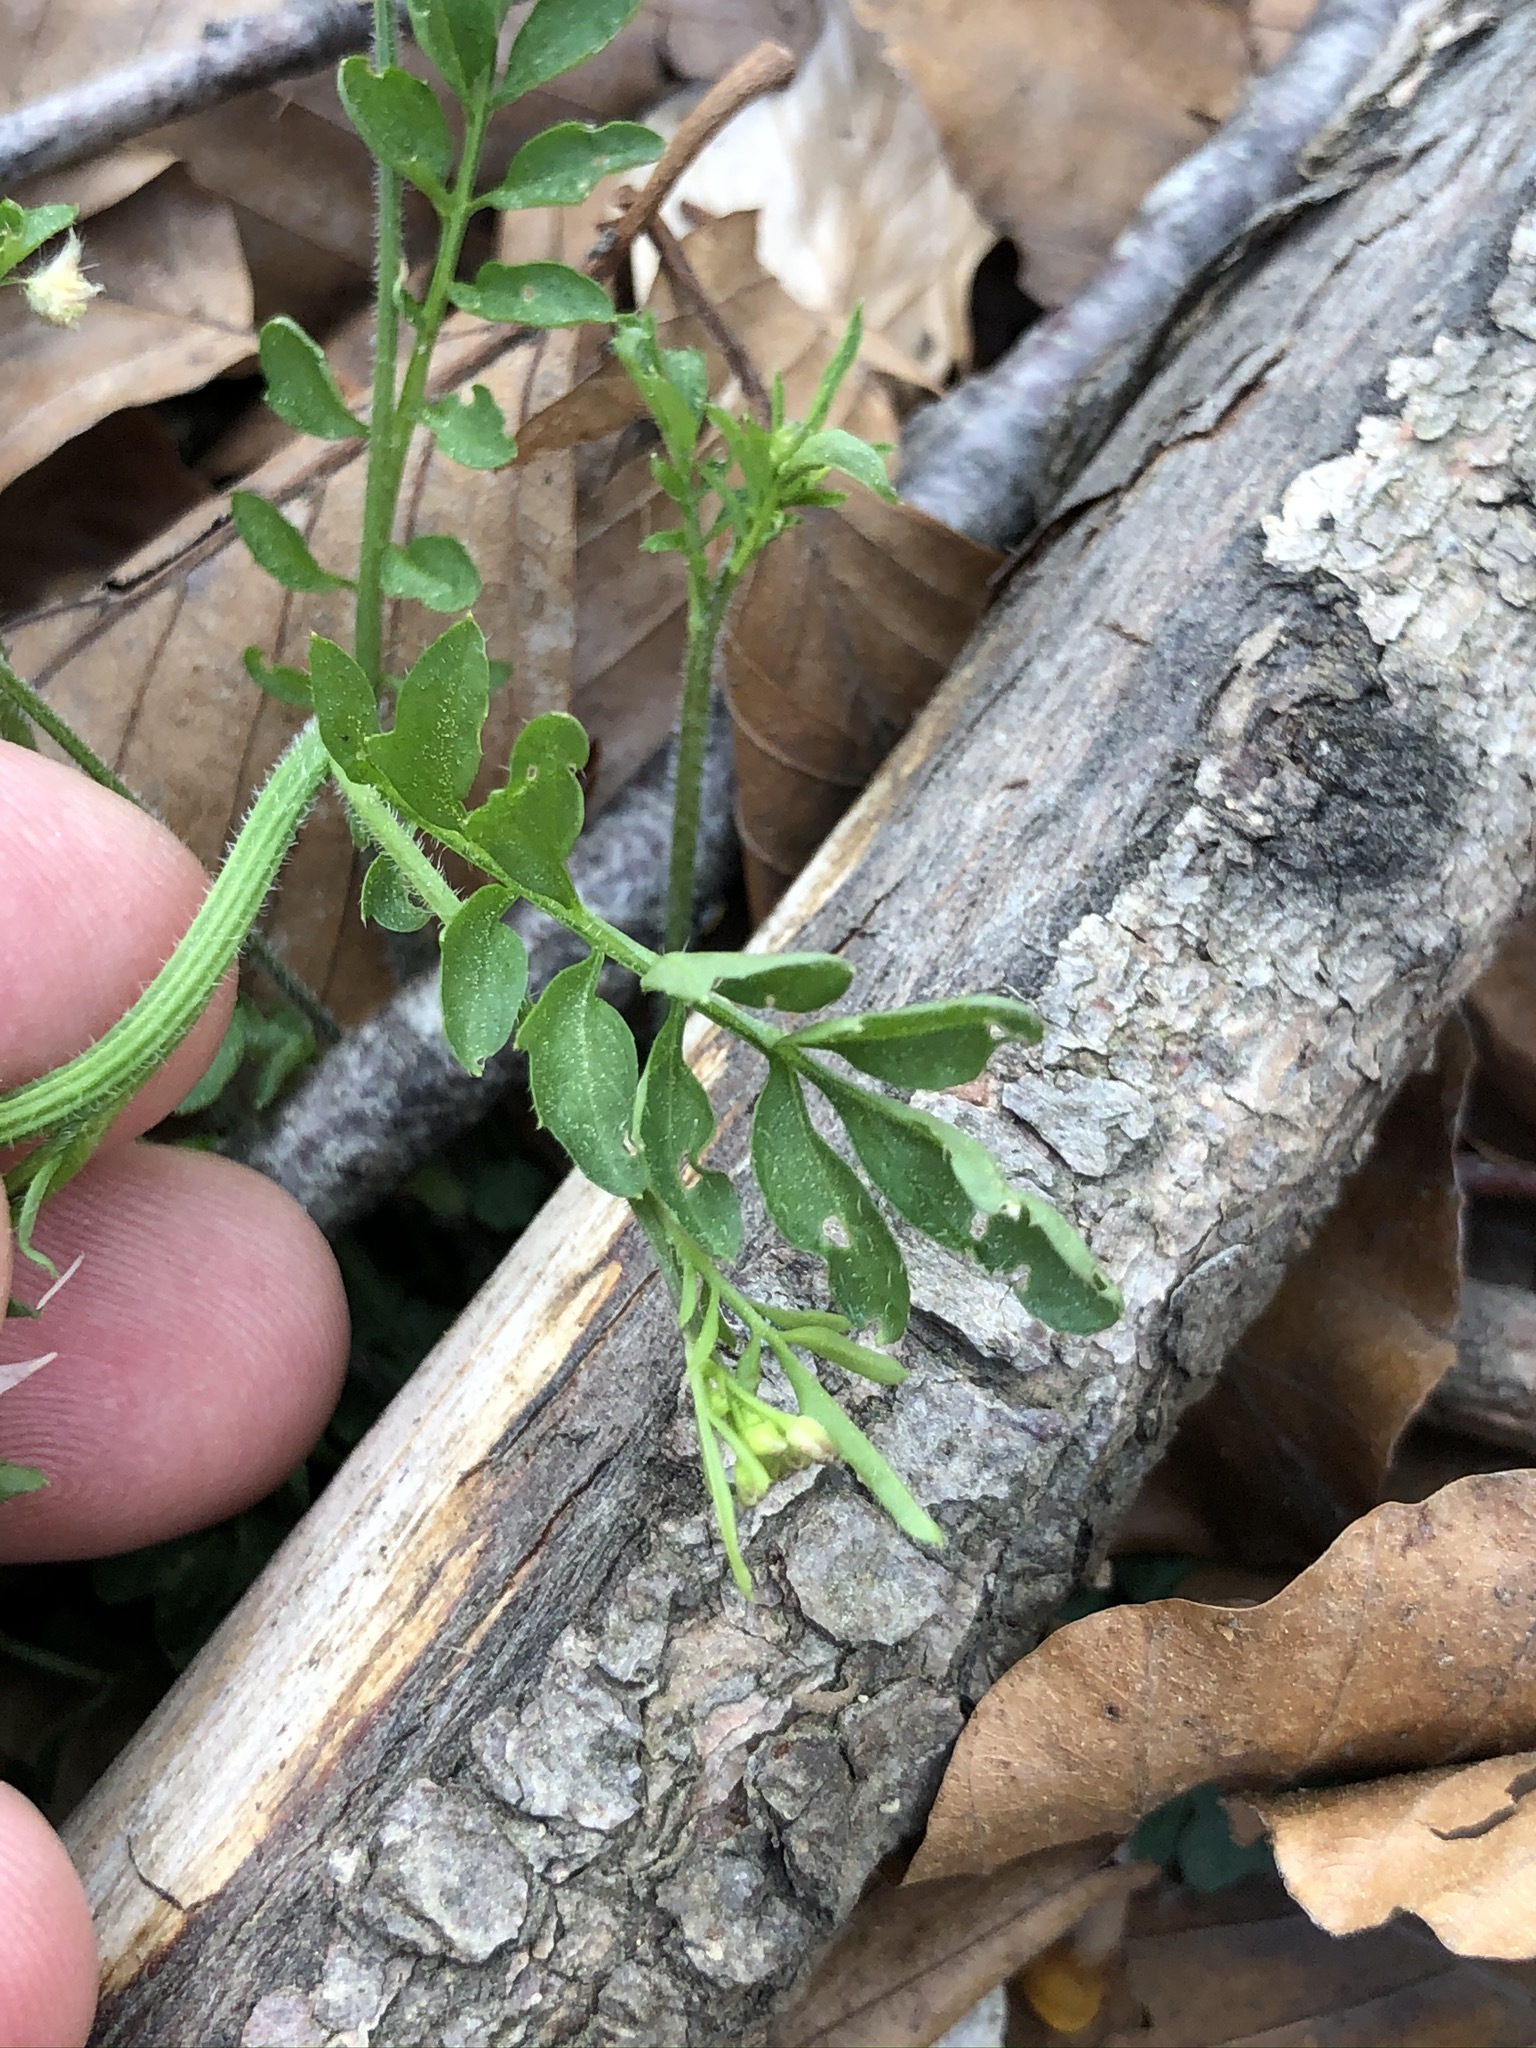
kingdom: Plantae
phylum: Tracheophyta
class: Magnoliopsida
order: Brassicales
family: Brassicaceae
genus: Cardamine
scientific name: Cardamine flexuosa
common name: Woodland bittercress
